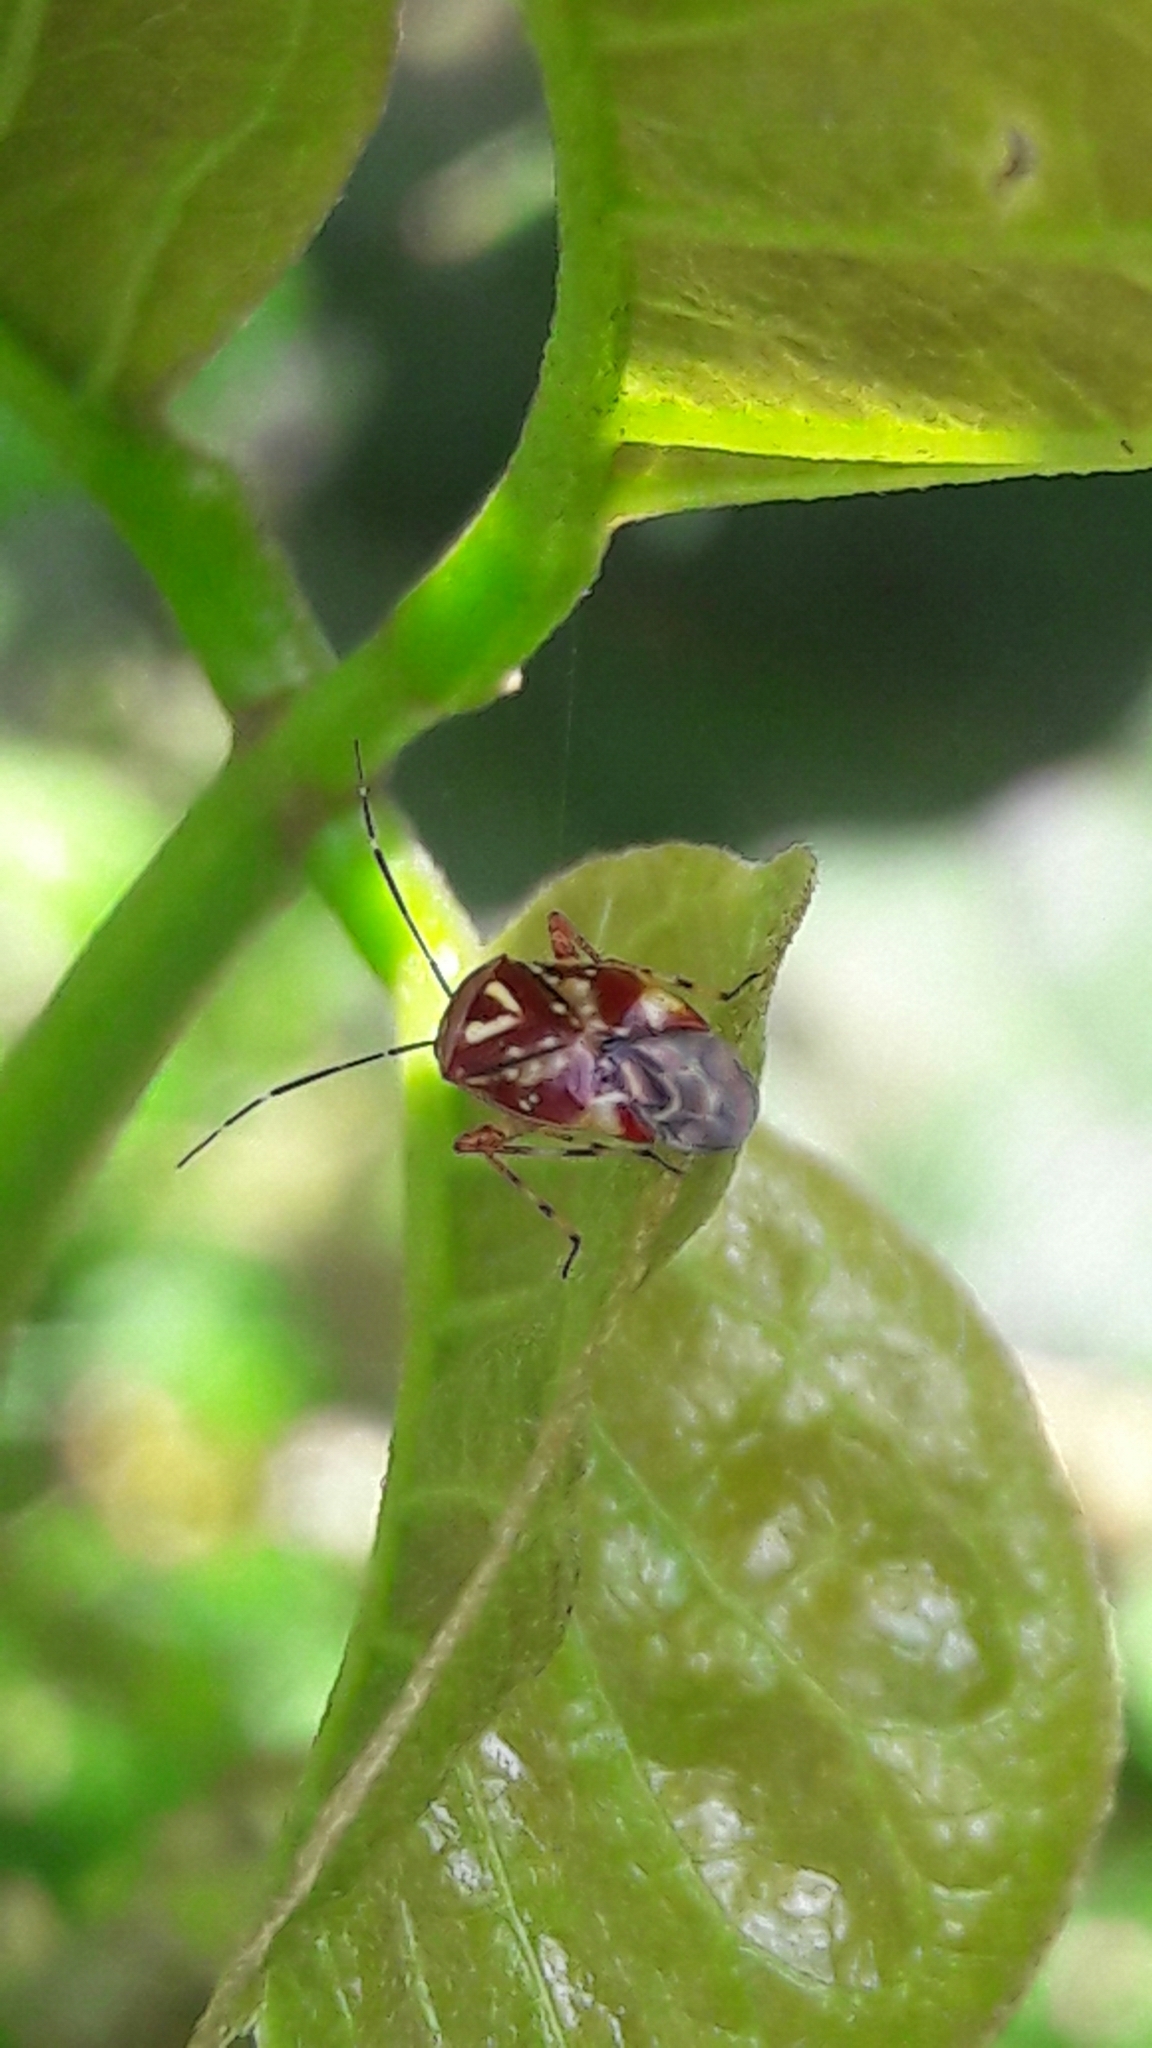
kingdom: Animalia
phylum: Arthropoda
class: Insecta
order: Hemiptera
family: Miridae
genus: Horciasoides
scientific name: Horciasoides nobilellus
